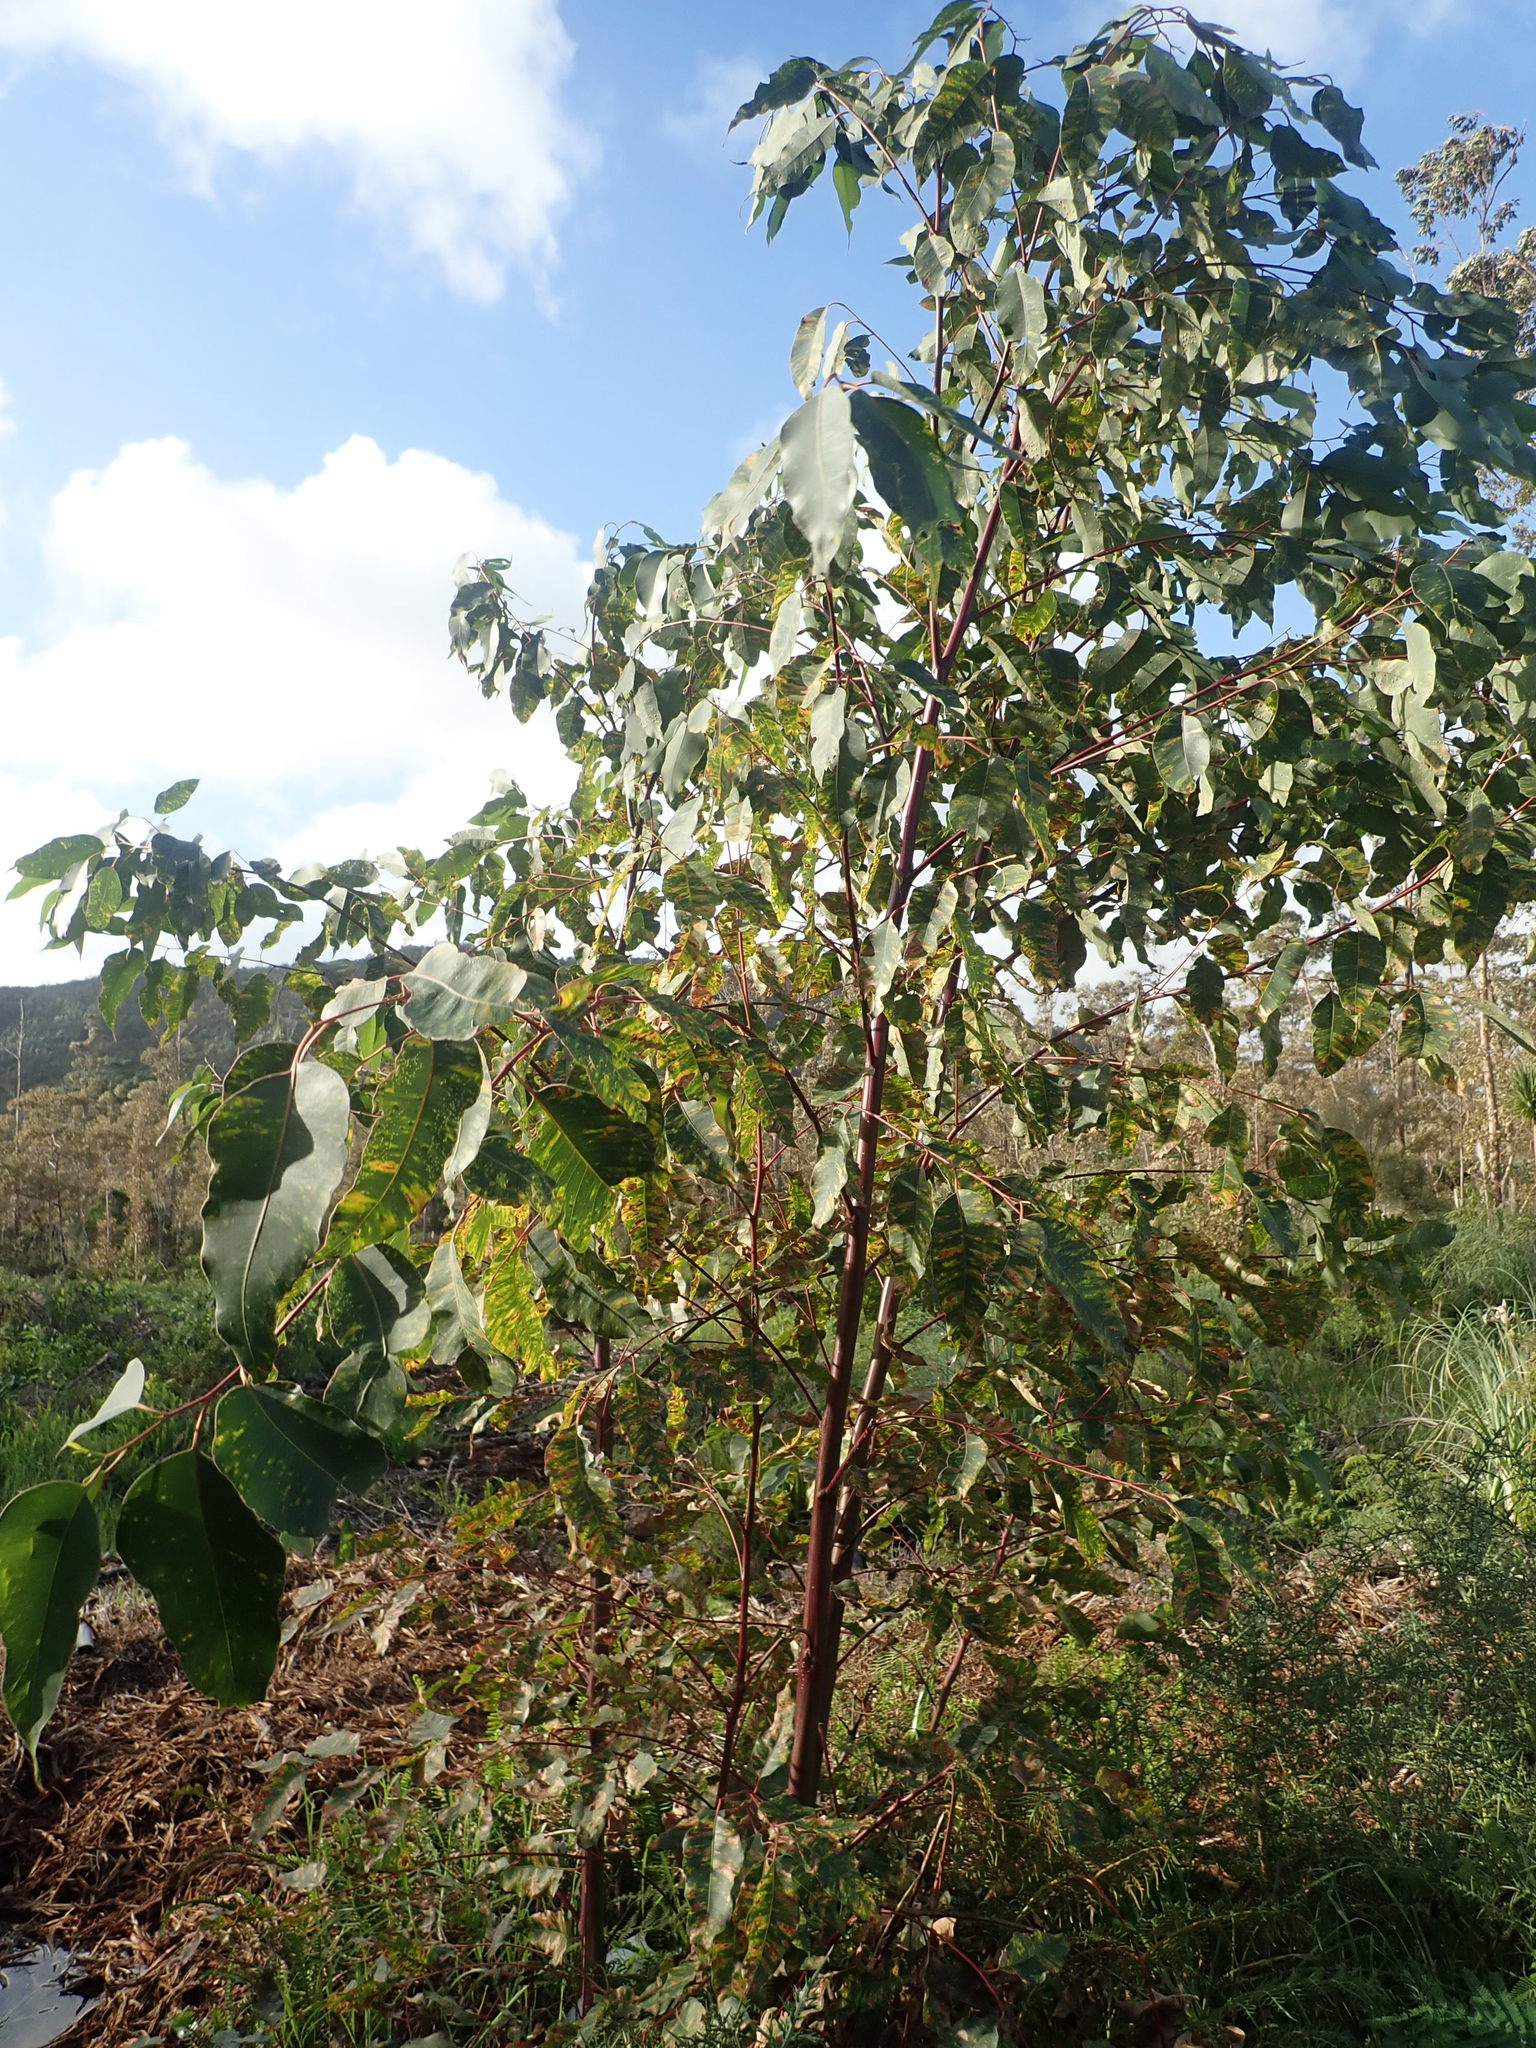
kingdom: Plantae
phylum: Tracheophyta
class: Magnoliopsida
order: Myrtales
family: Myrtaceae
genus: Eucalyptus
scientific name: Eucalyptus botryoides
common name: Bangalay
